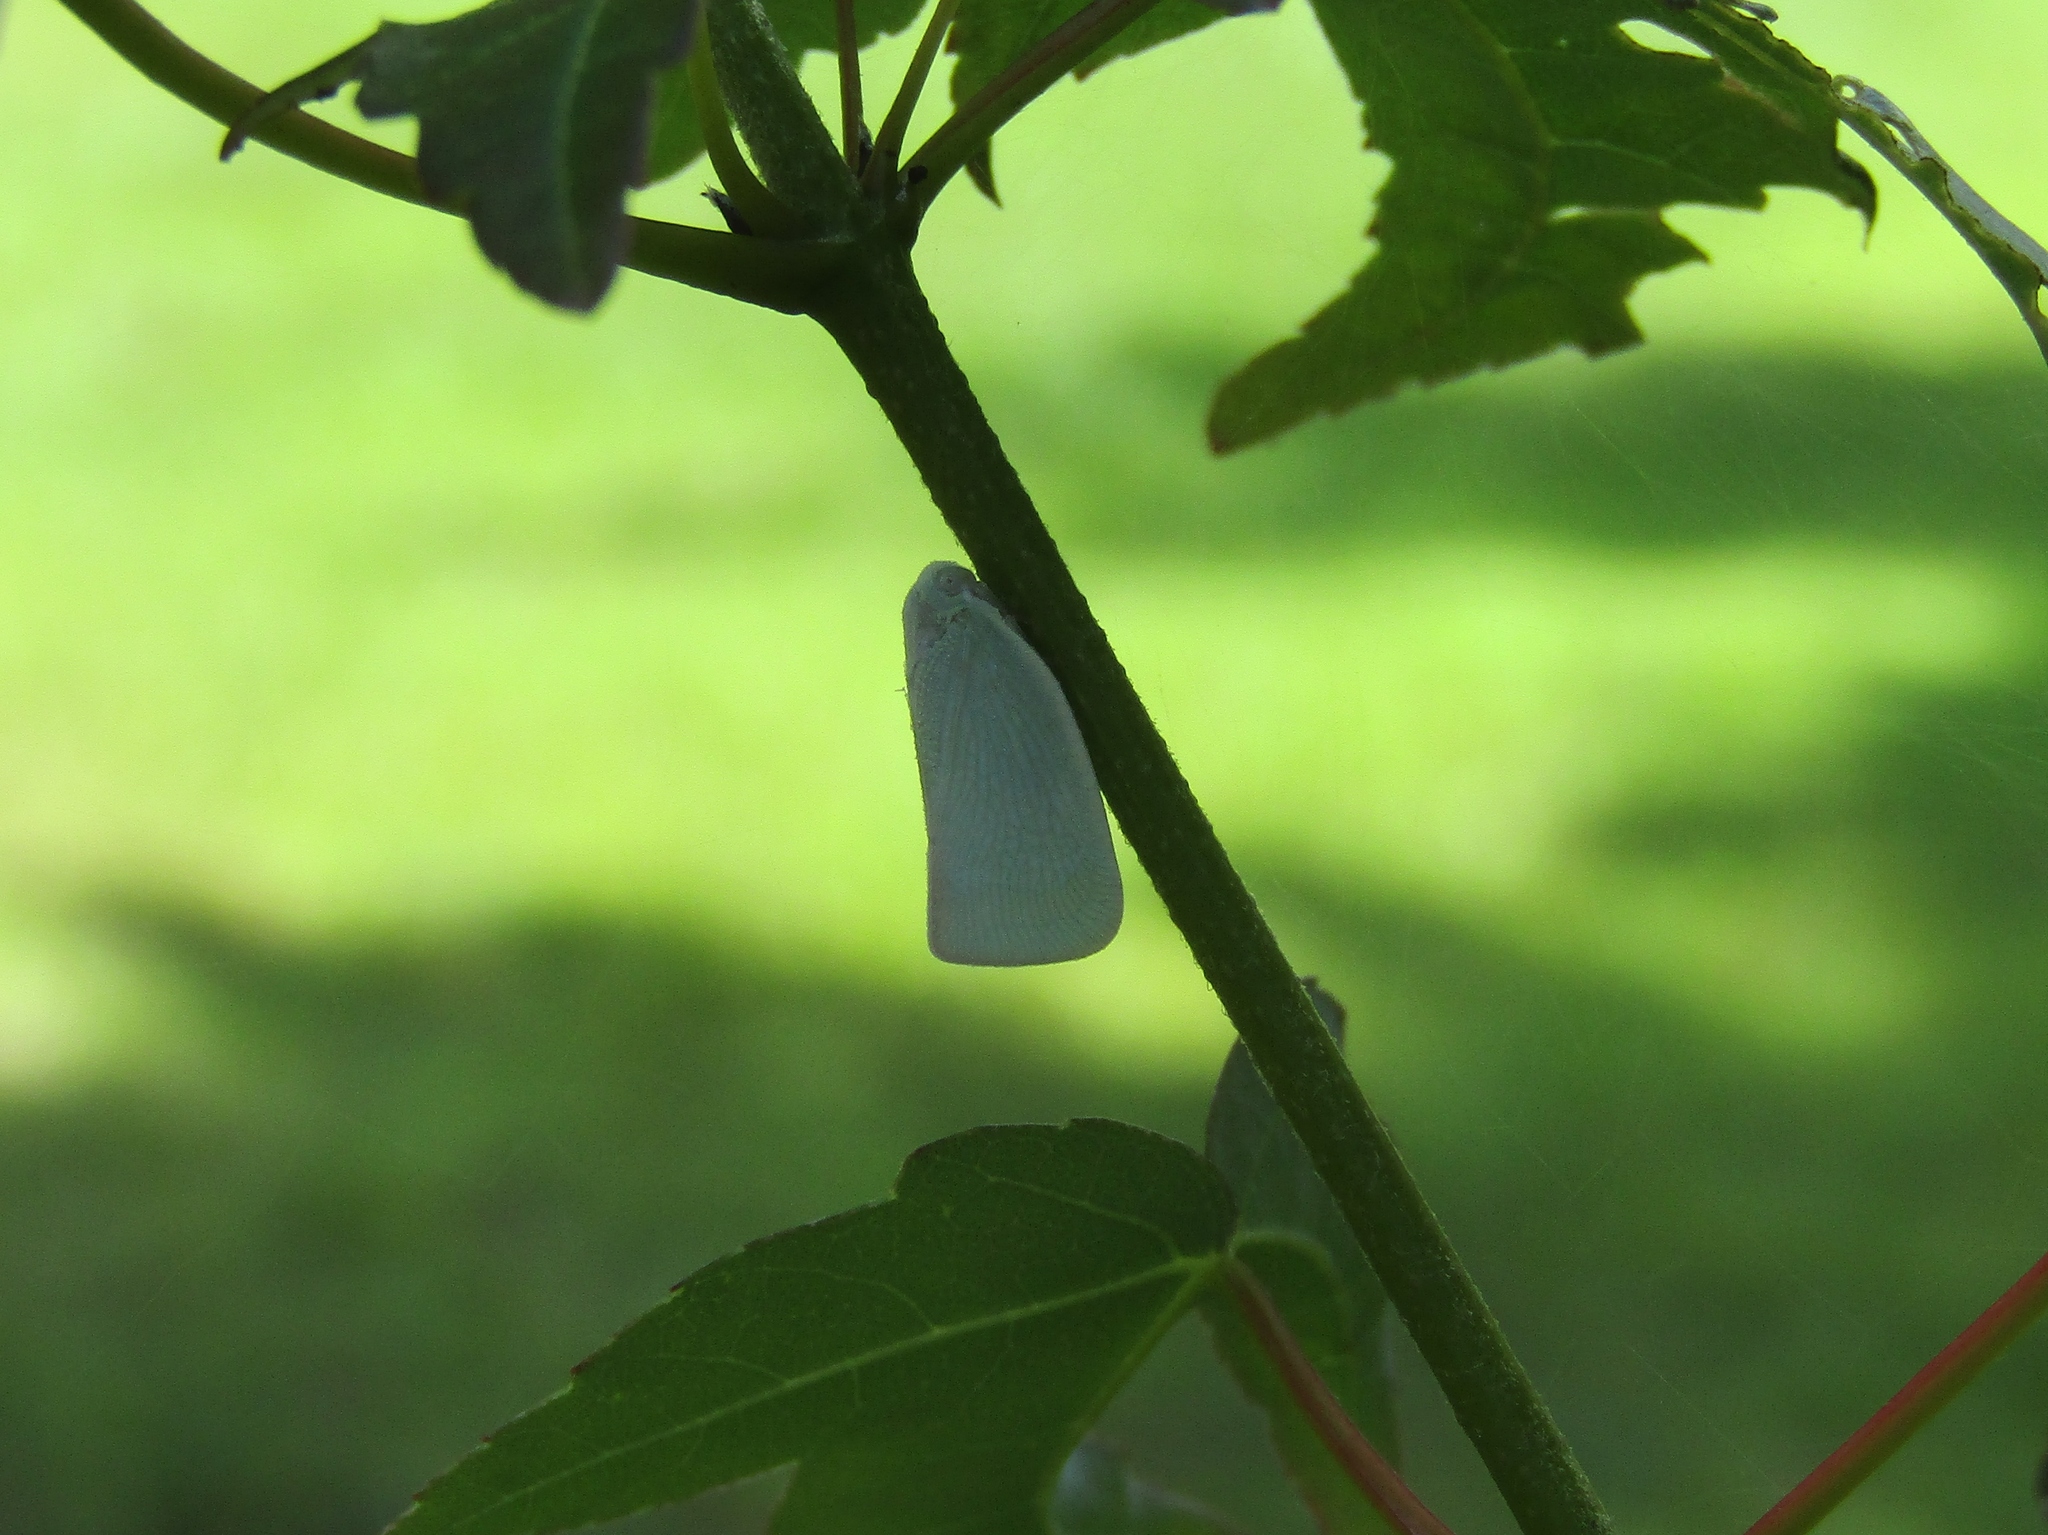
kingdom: Animalia
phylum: Arthropoda
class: Insecta
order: Hemiptera
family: Flatidae
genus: Flatormenis
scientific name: Flatormenis proxima
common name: Northern flatid planthopper
